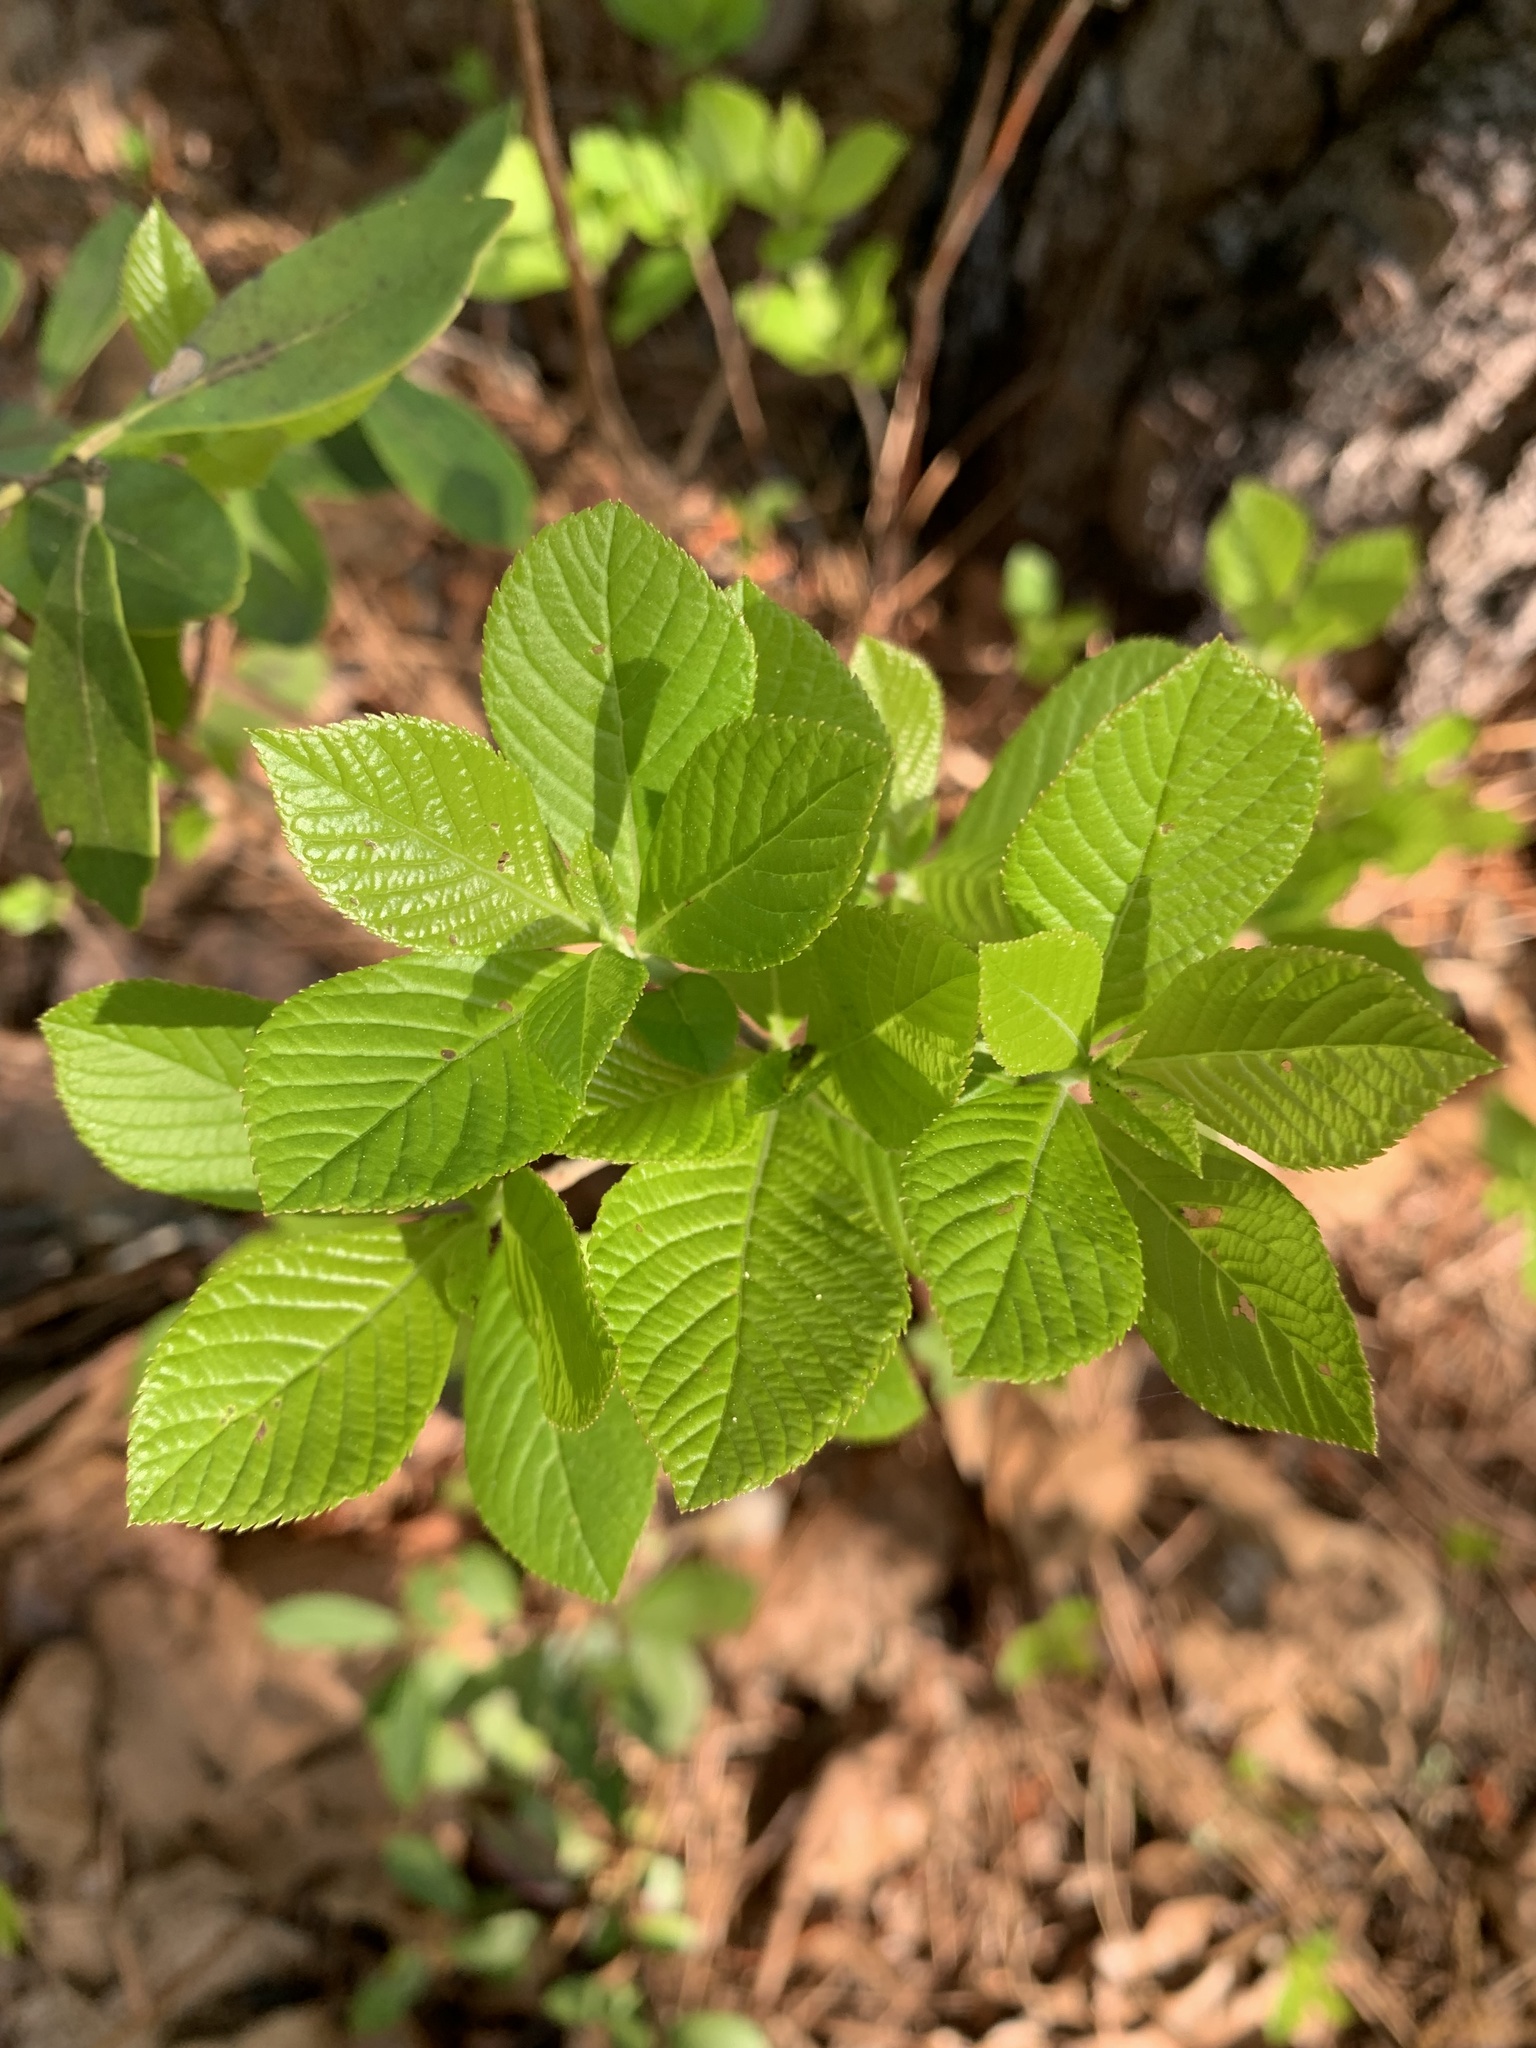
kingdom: Plantae
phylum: Tracheophyta
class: Magnoliopsida
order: Ericales
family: Clethraceae
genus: Clethra
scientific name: Clethra alnifolia
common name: Sweet pepperbush
